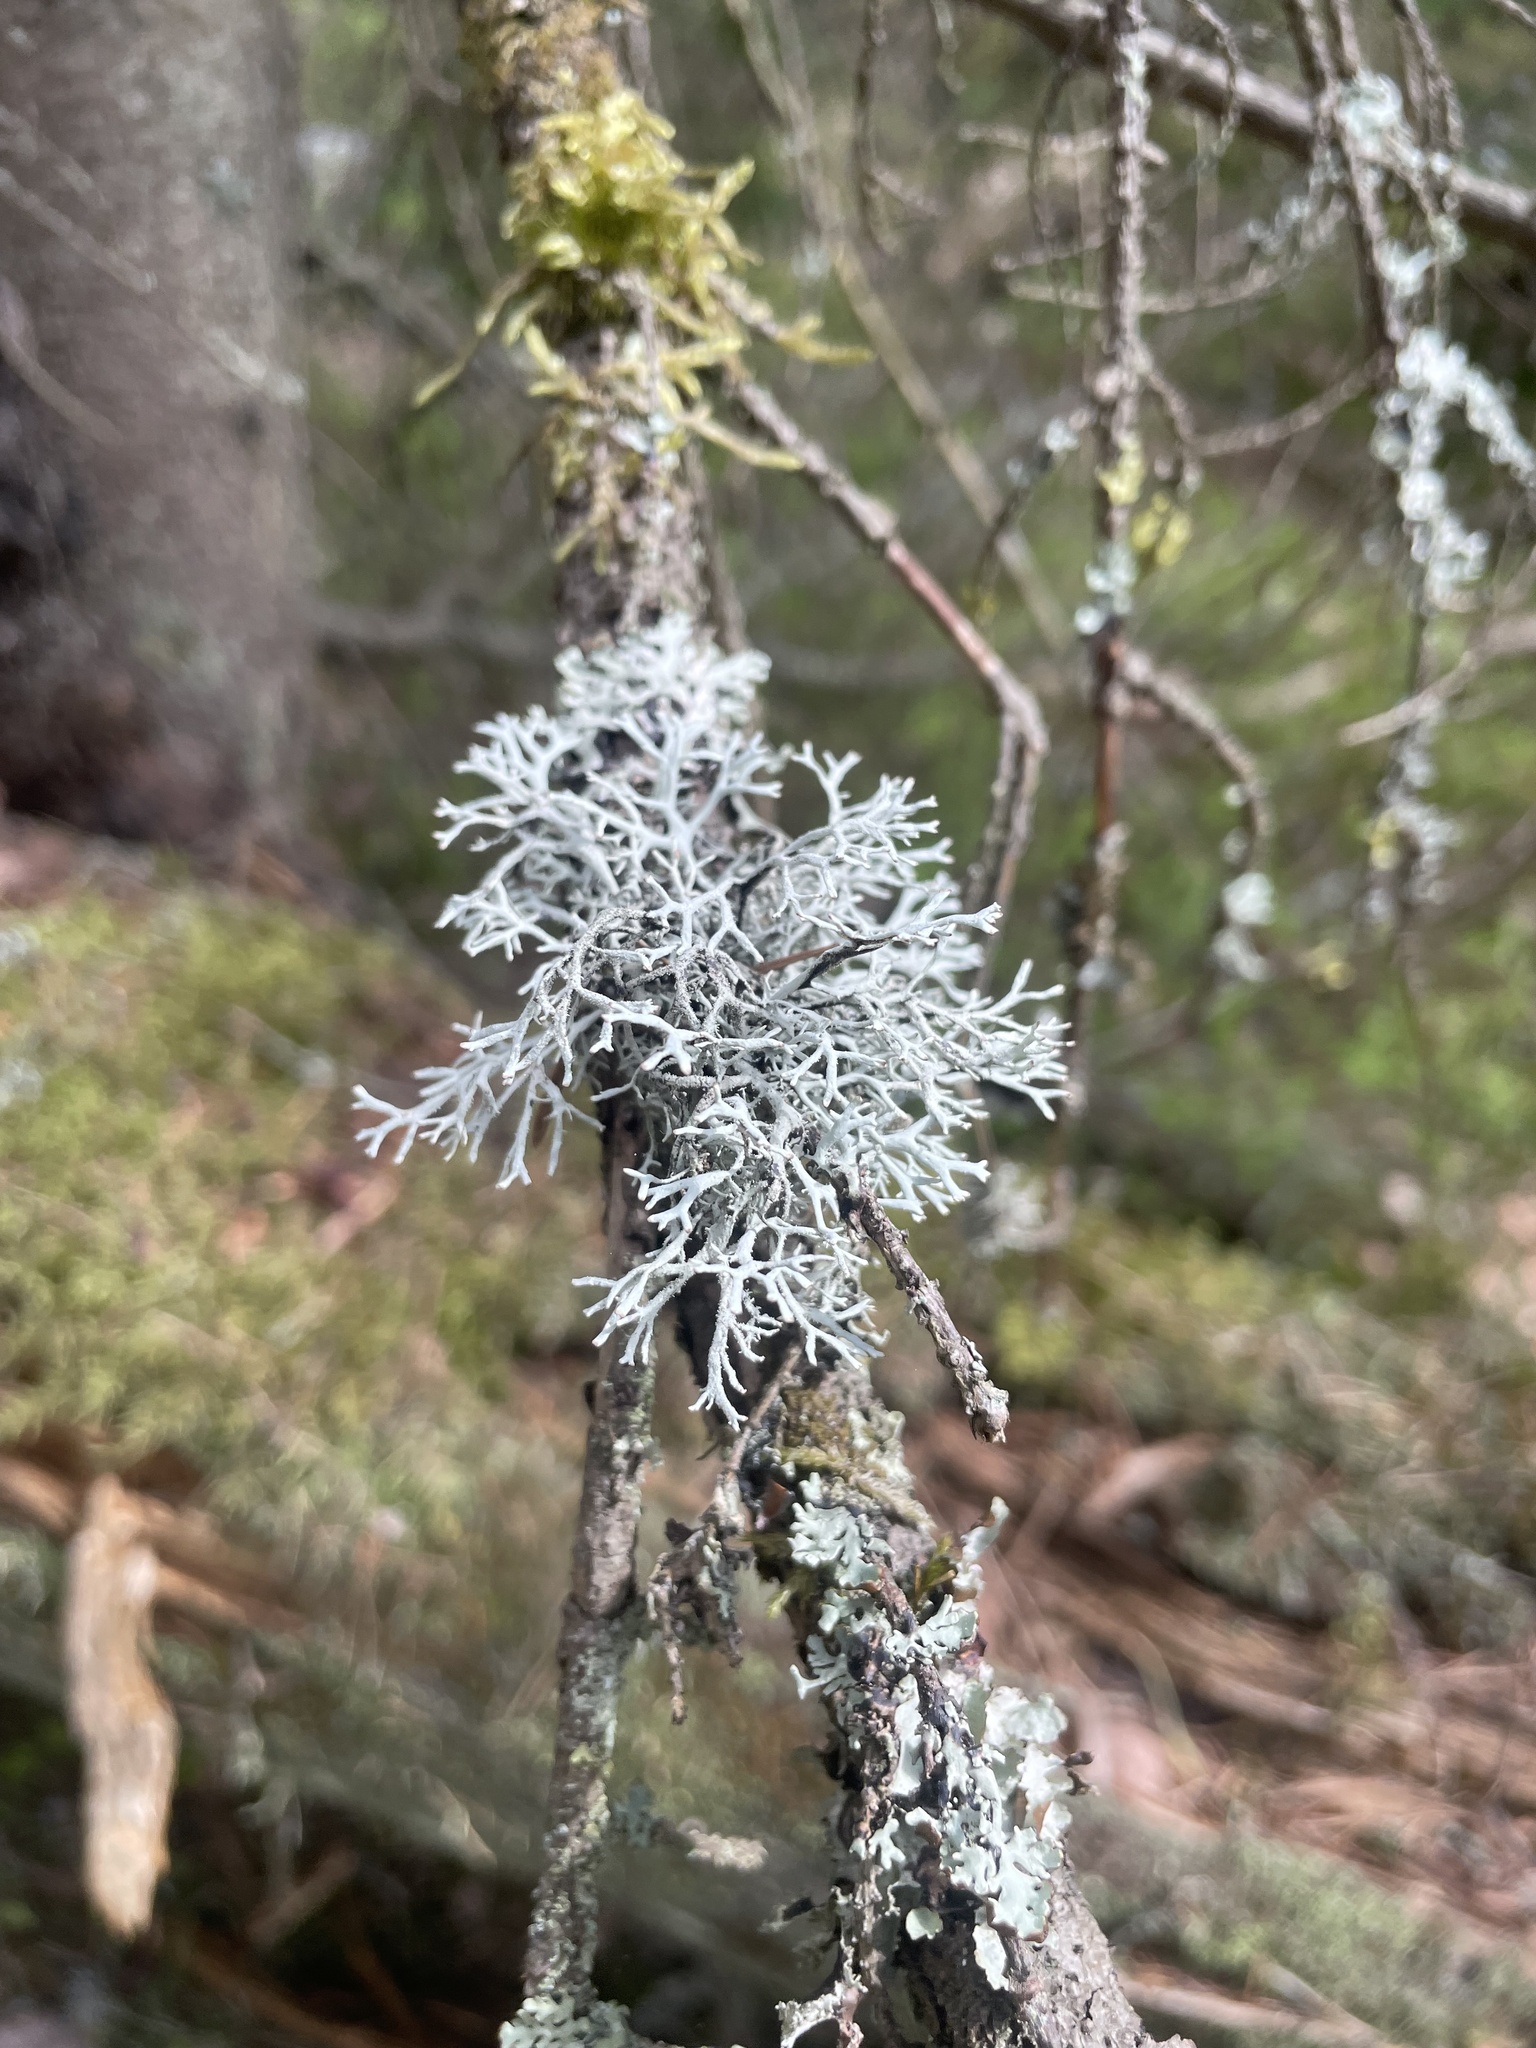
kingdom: Fungi
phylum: Ascomycota
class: Lecanoromycetes
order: Lecanorales
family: Parmeliaceae
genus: Pseudevernia
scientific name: Pseudevernia furfuracea
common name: Tree moss
